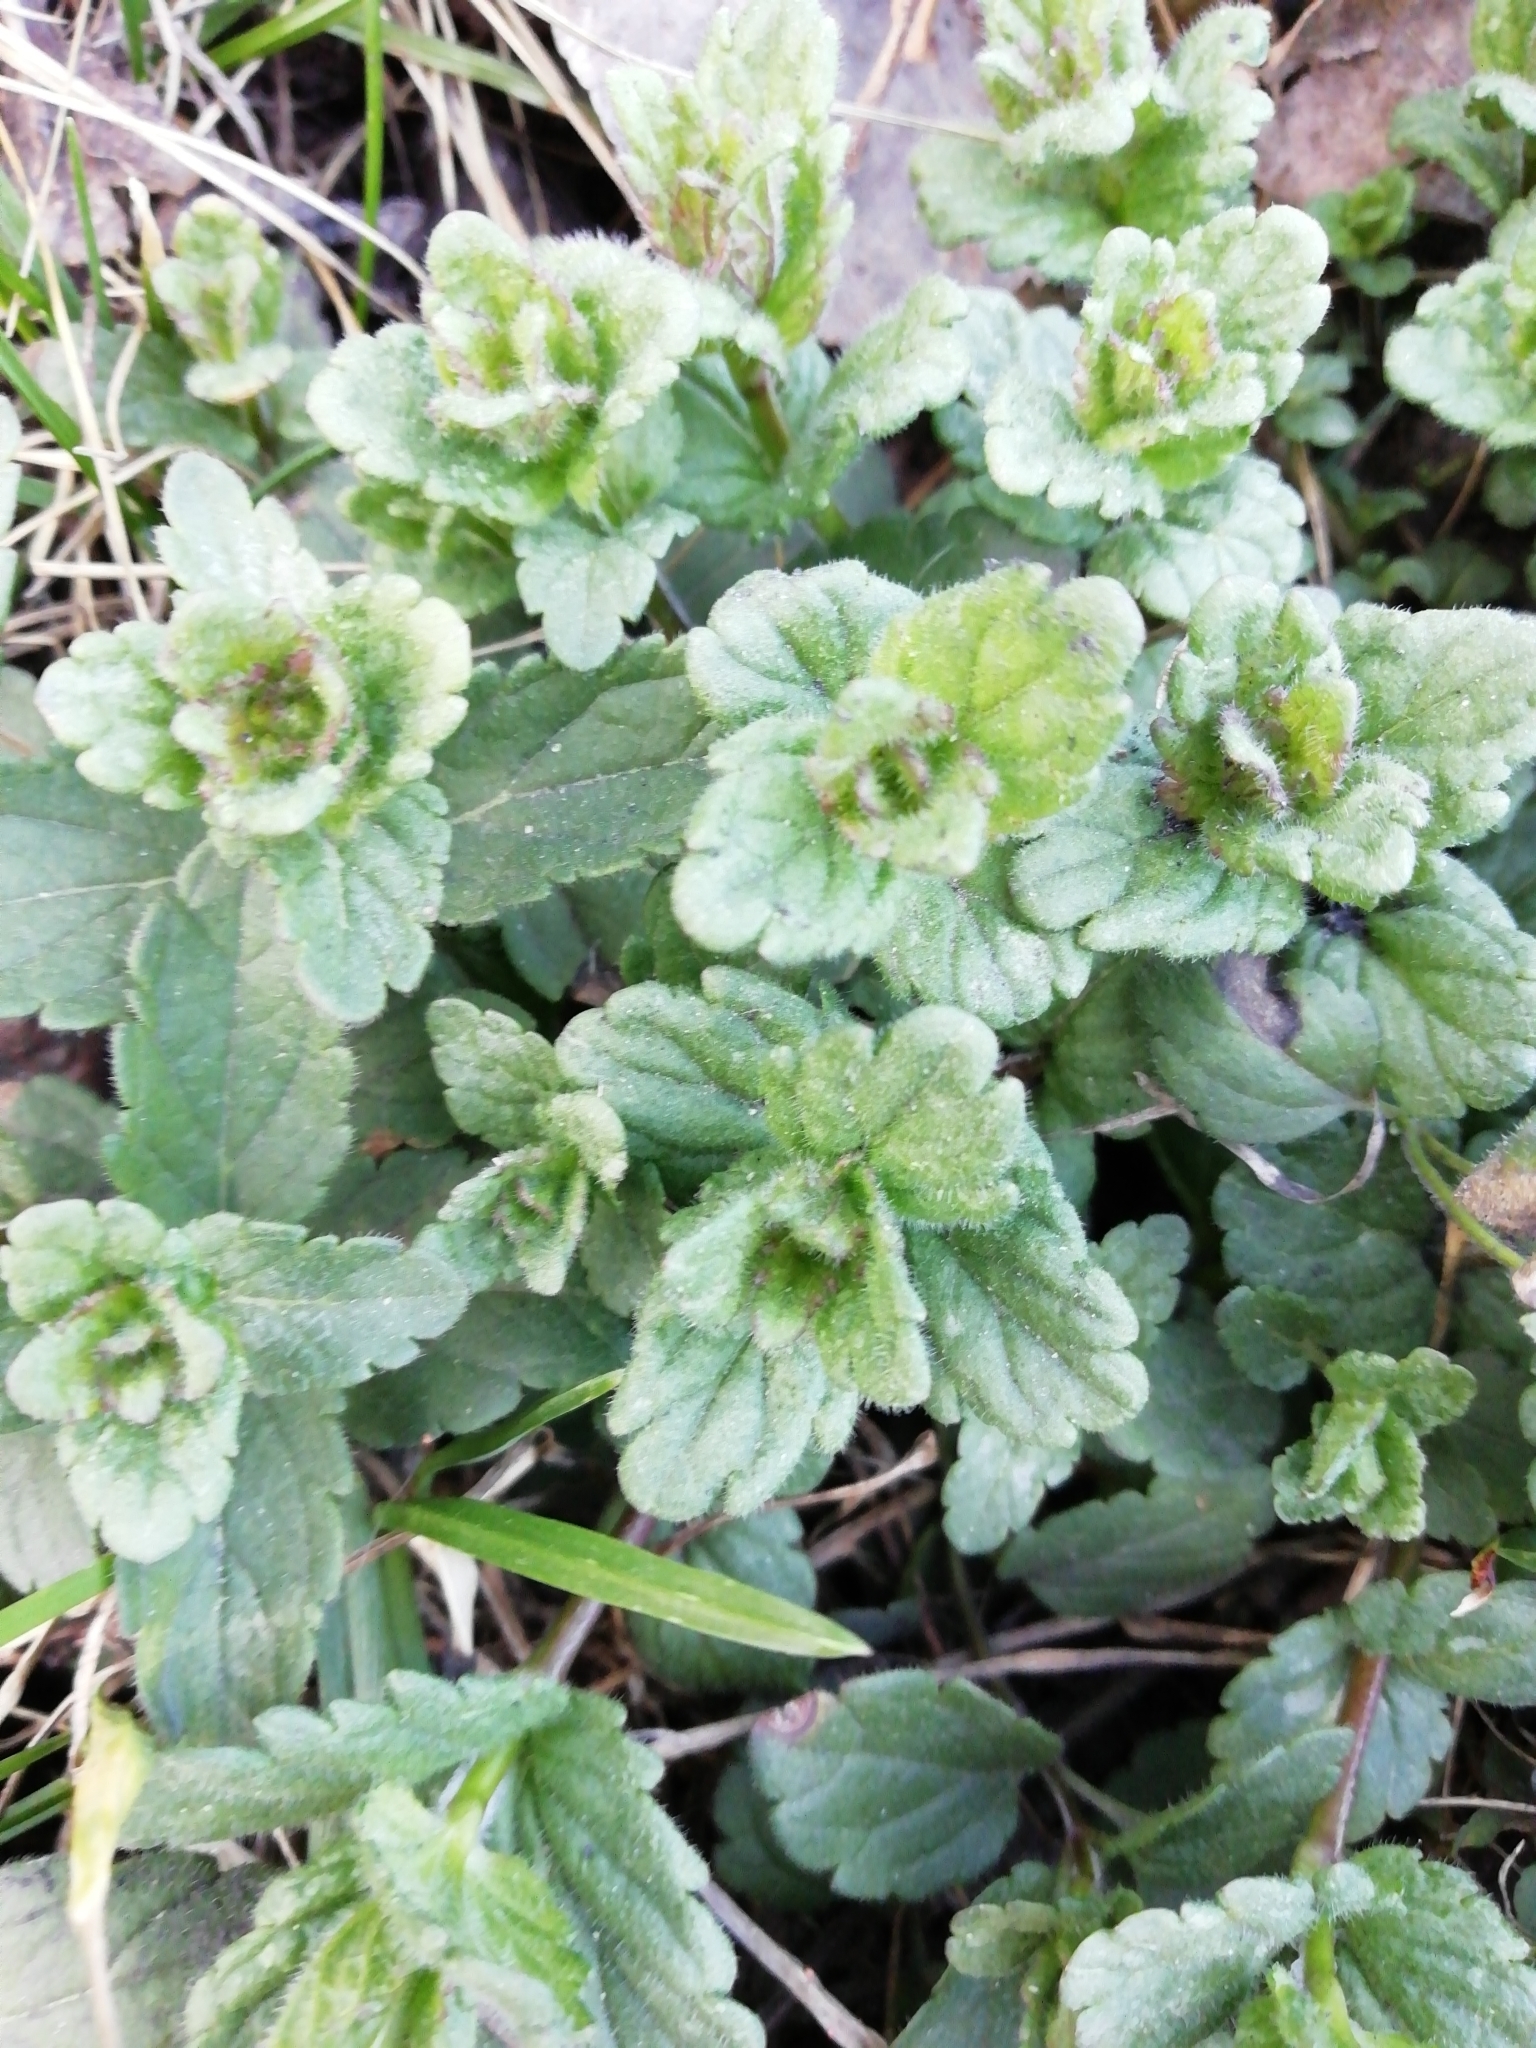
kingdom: Plantae
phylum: Tracheophyta
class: Magnoliopsida
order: Lamiales
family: Plantaginaceae
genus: Veronica
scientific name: Veronica chamaedrys
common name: Germander speedwell
